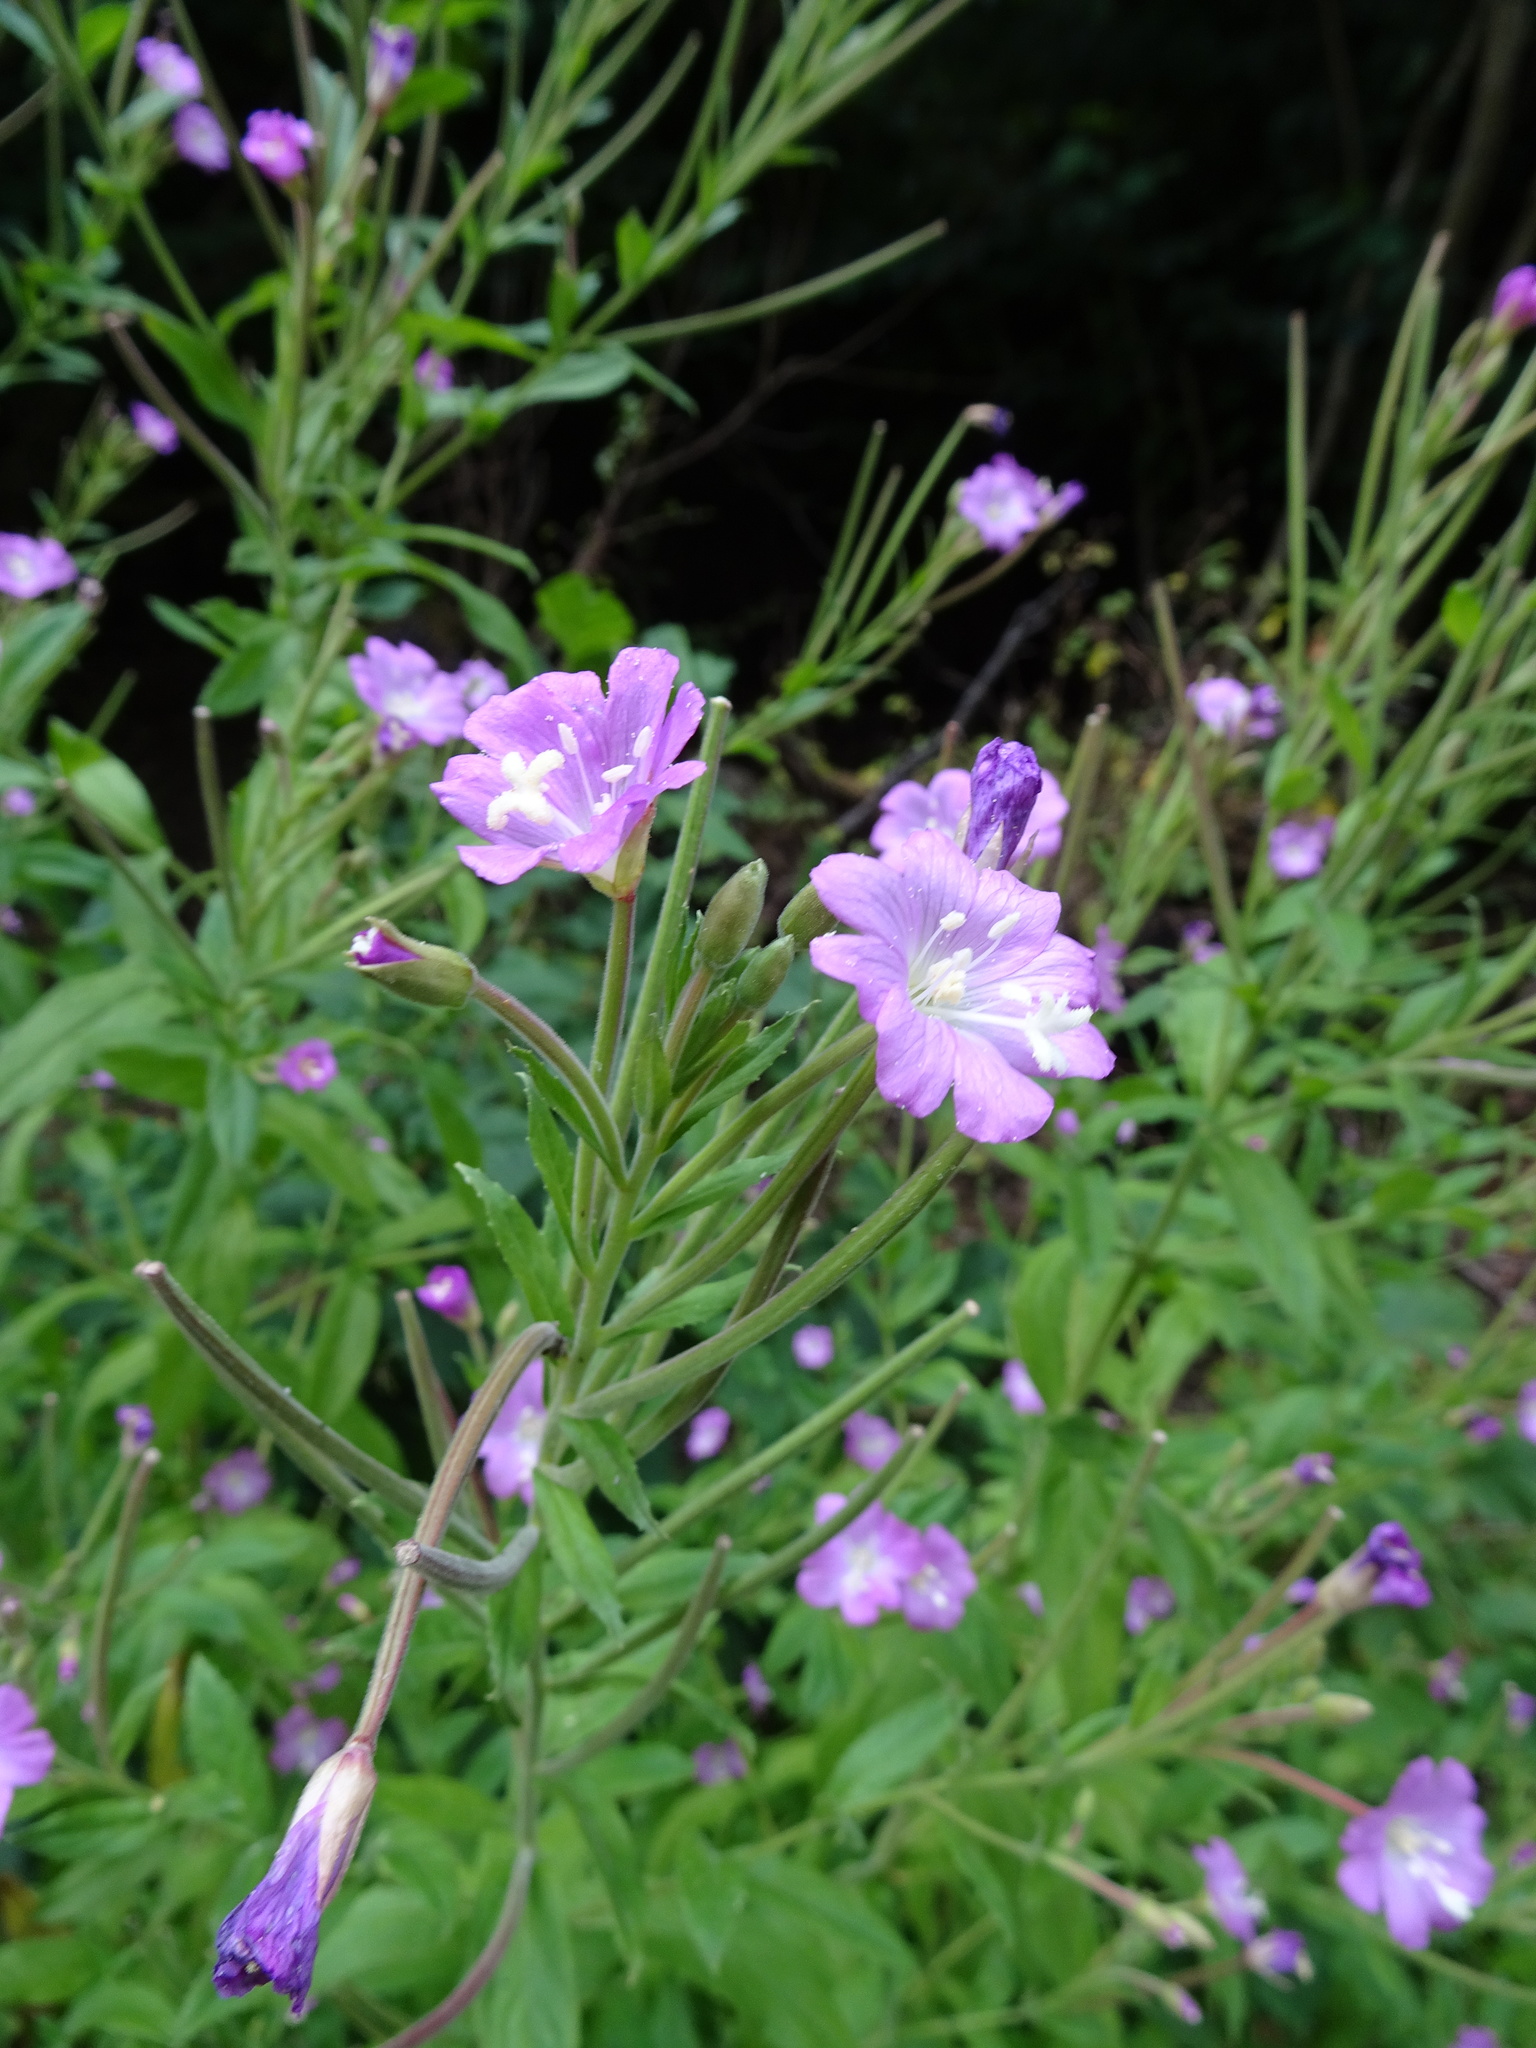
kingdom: Plantae
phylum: Tracheophyta
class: Magnoliopsida
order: Myrtales
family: Onagraceae
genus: Epilobium
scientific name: Epilobium hirsutum
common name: Great willowherb
